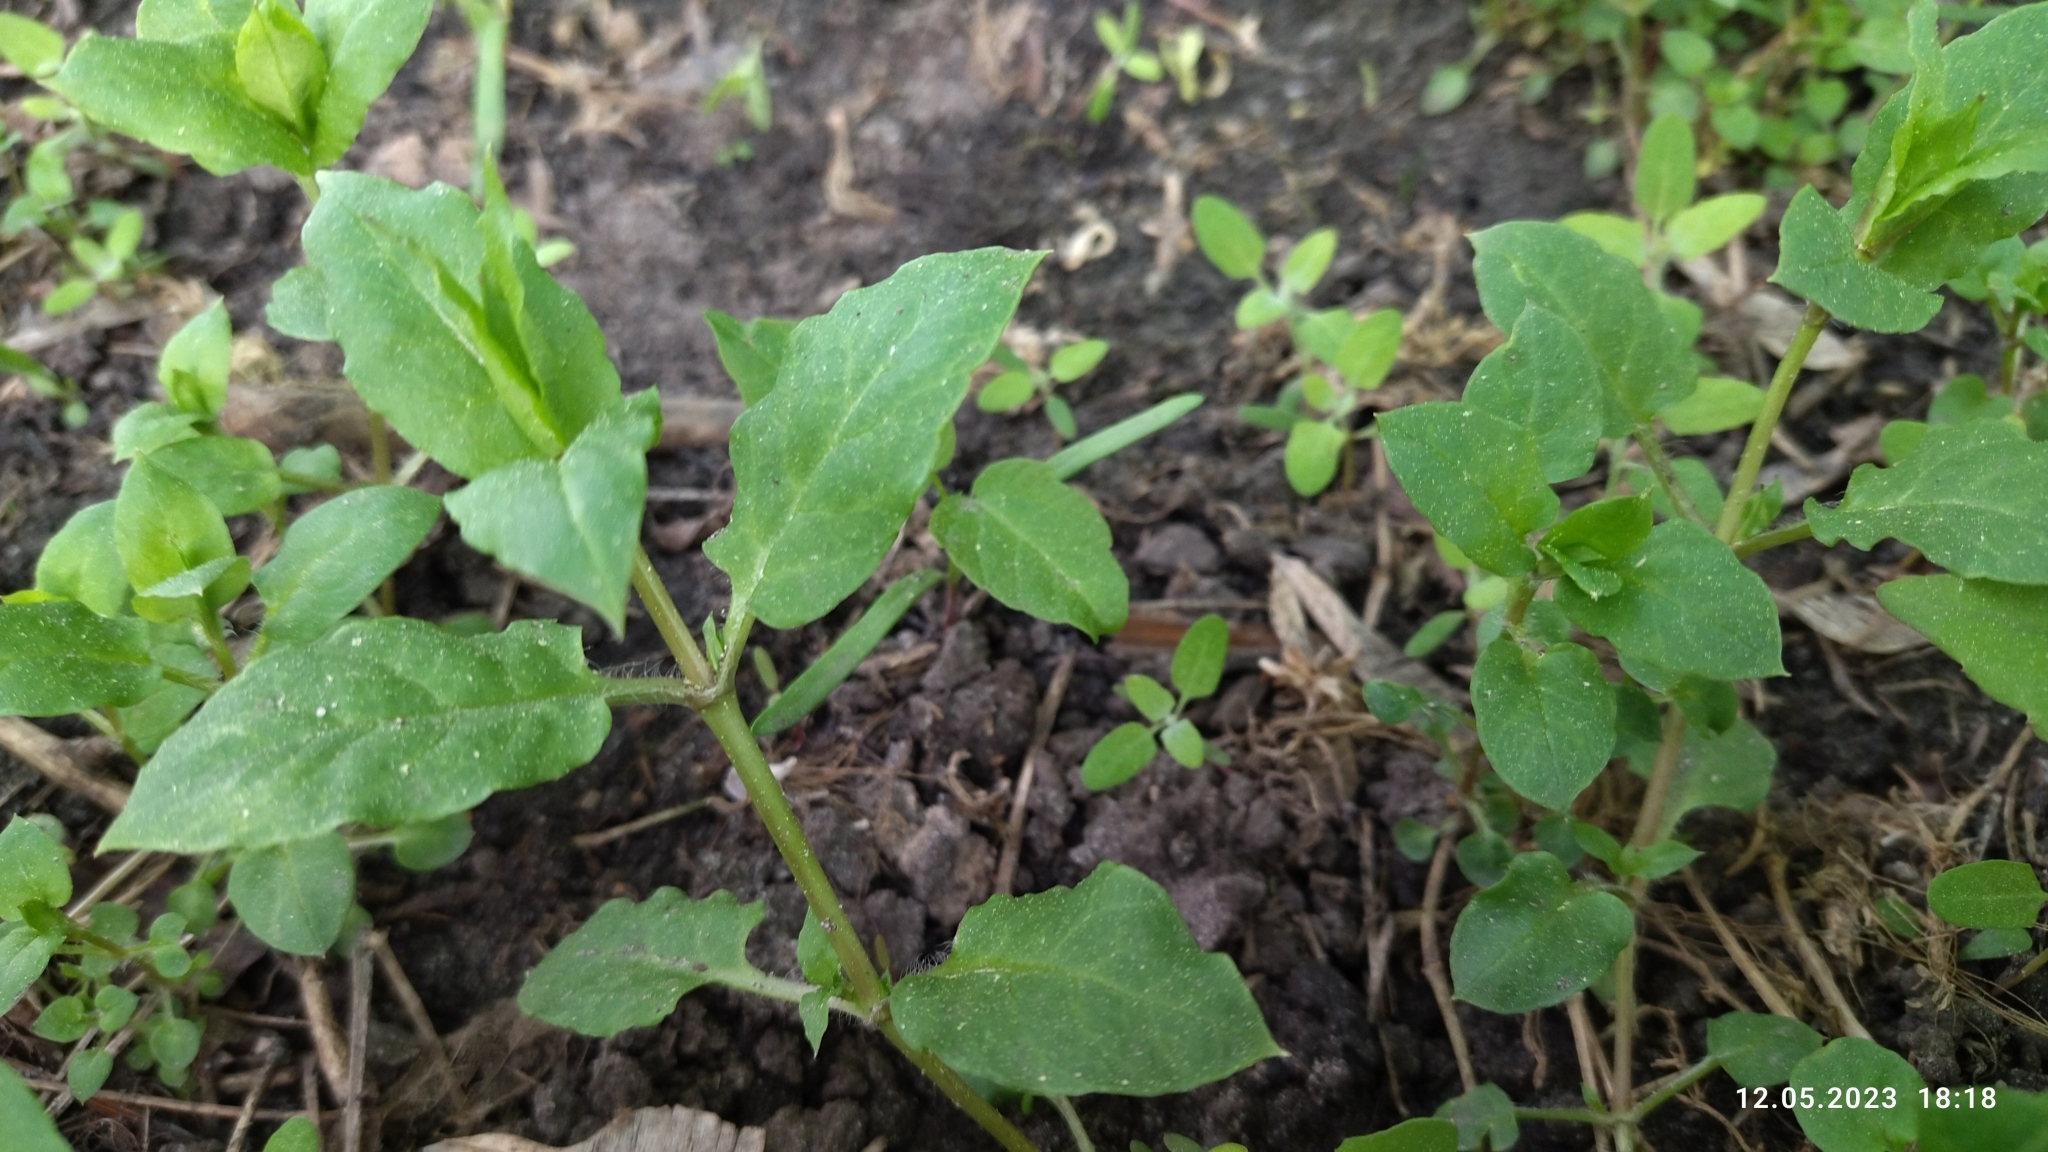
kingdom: Plantae
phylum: Tracheophyta
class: Magnoliopsida
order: Caryophyllales
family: Caryophyllaceae
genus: Stellaria
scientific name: Stellaria aquatica
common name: Water chickweed
